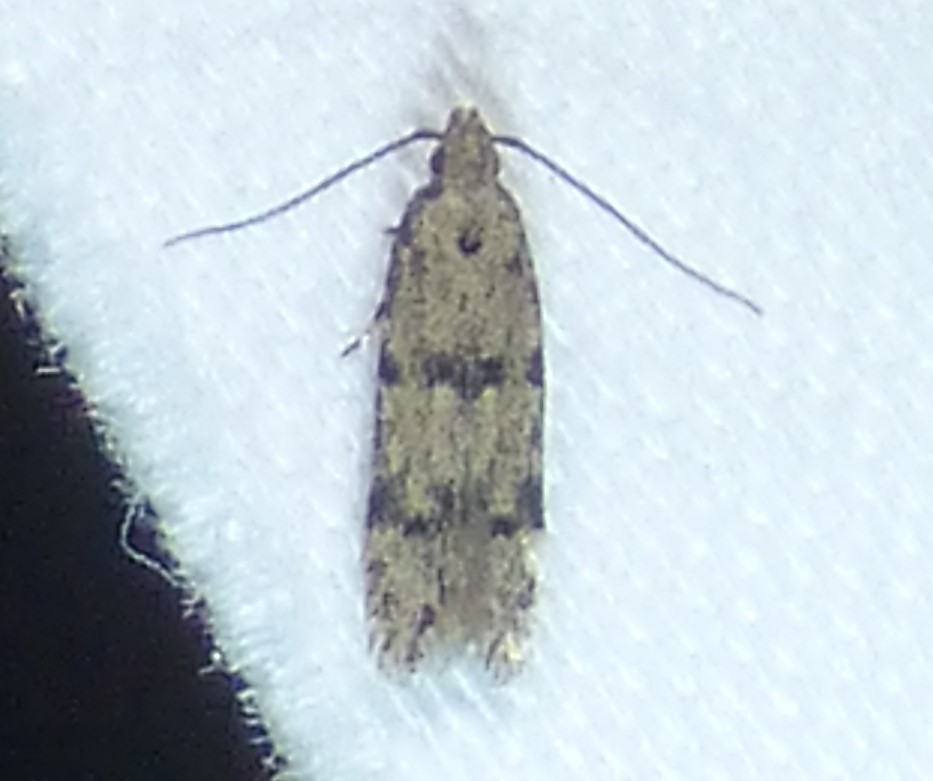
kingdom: Animalia
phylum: Arthropoda
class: Insecta
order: Lepidoptera
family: Autostichidae
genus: Taygete
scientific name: Taygete attributella
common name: Triangle-marked twirler moth
